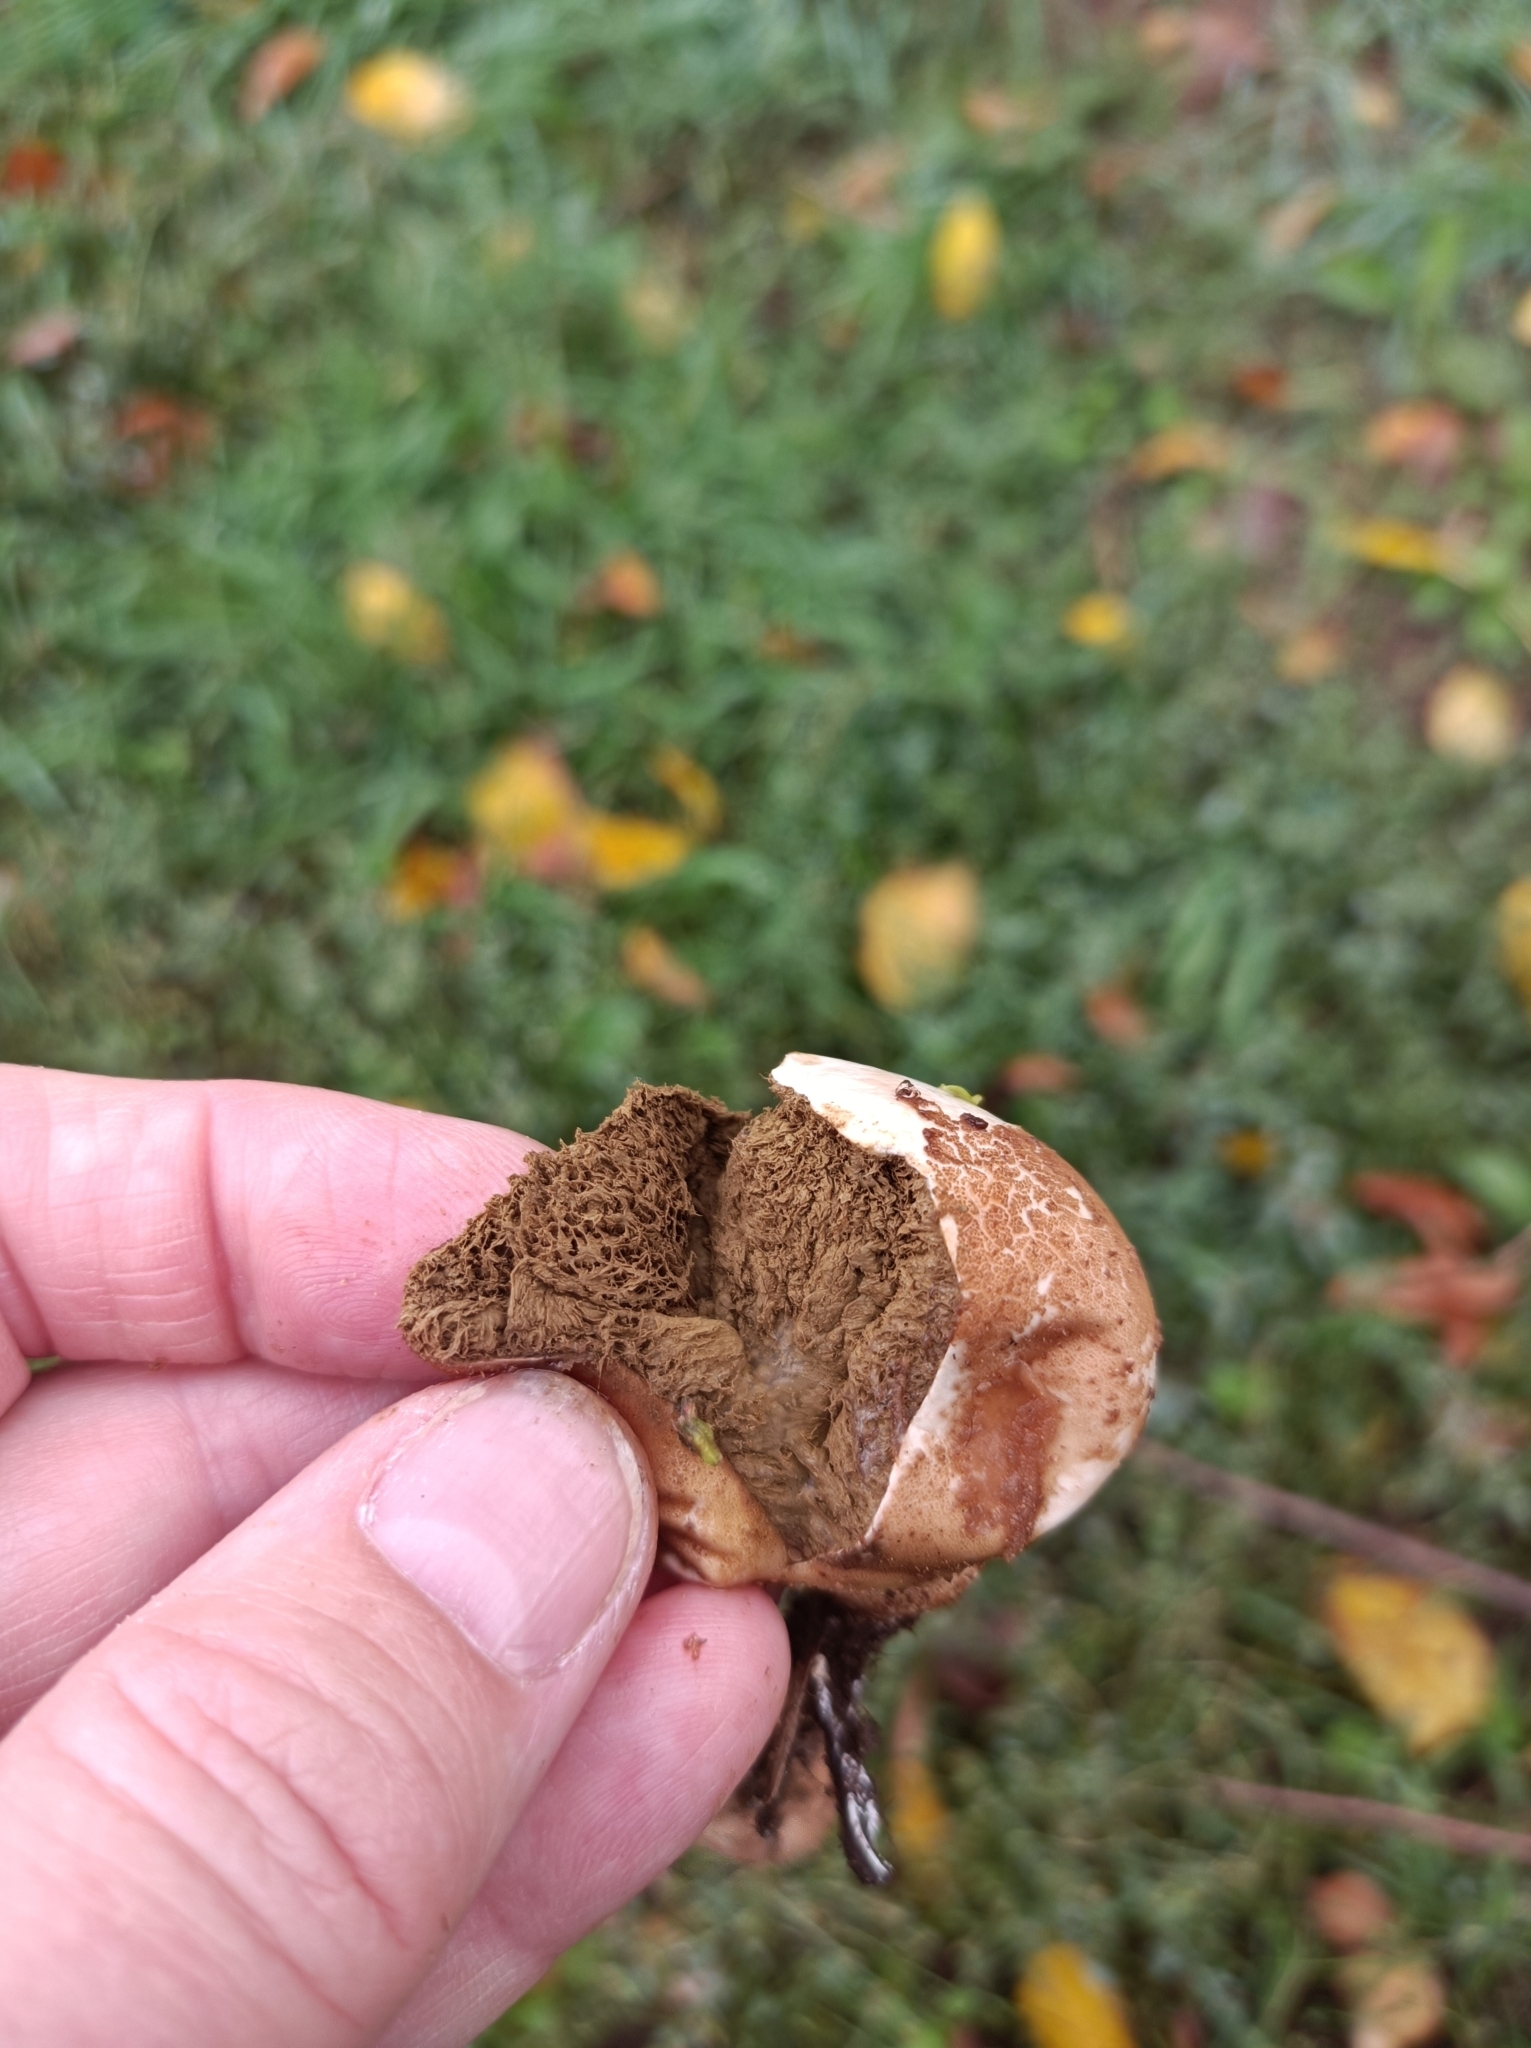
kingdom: Fungi
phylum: Basidiomycota
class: Agaricomycetes
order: Agaricales
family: Lycoperdaceae
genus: Lycoperdon
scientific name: Lycoperdon pratense
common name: Meadow puffball
